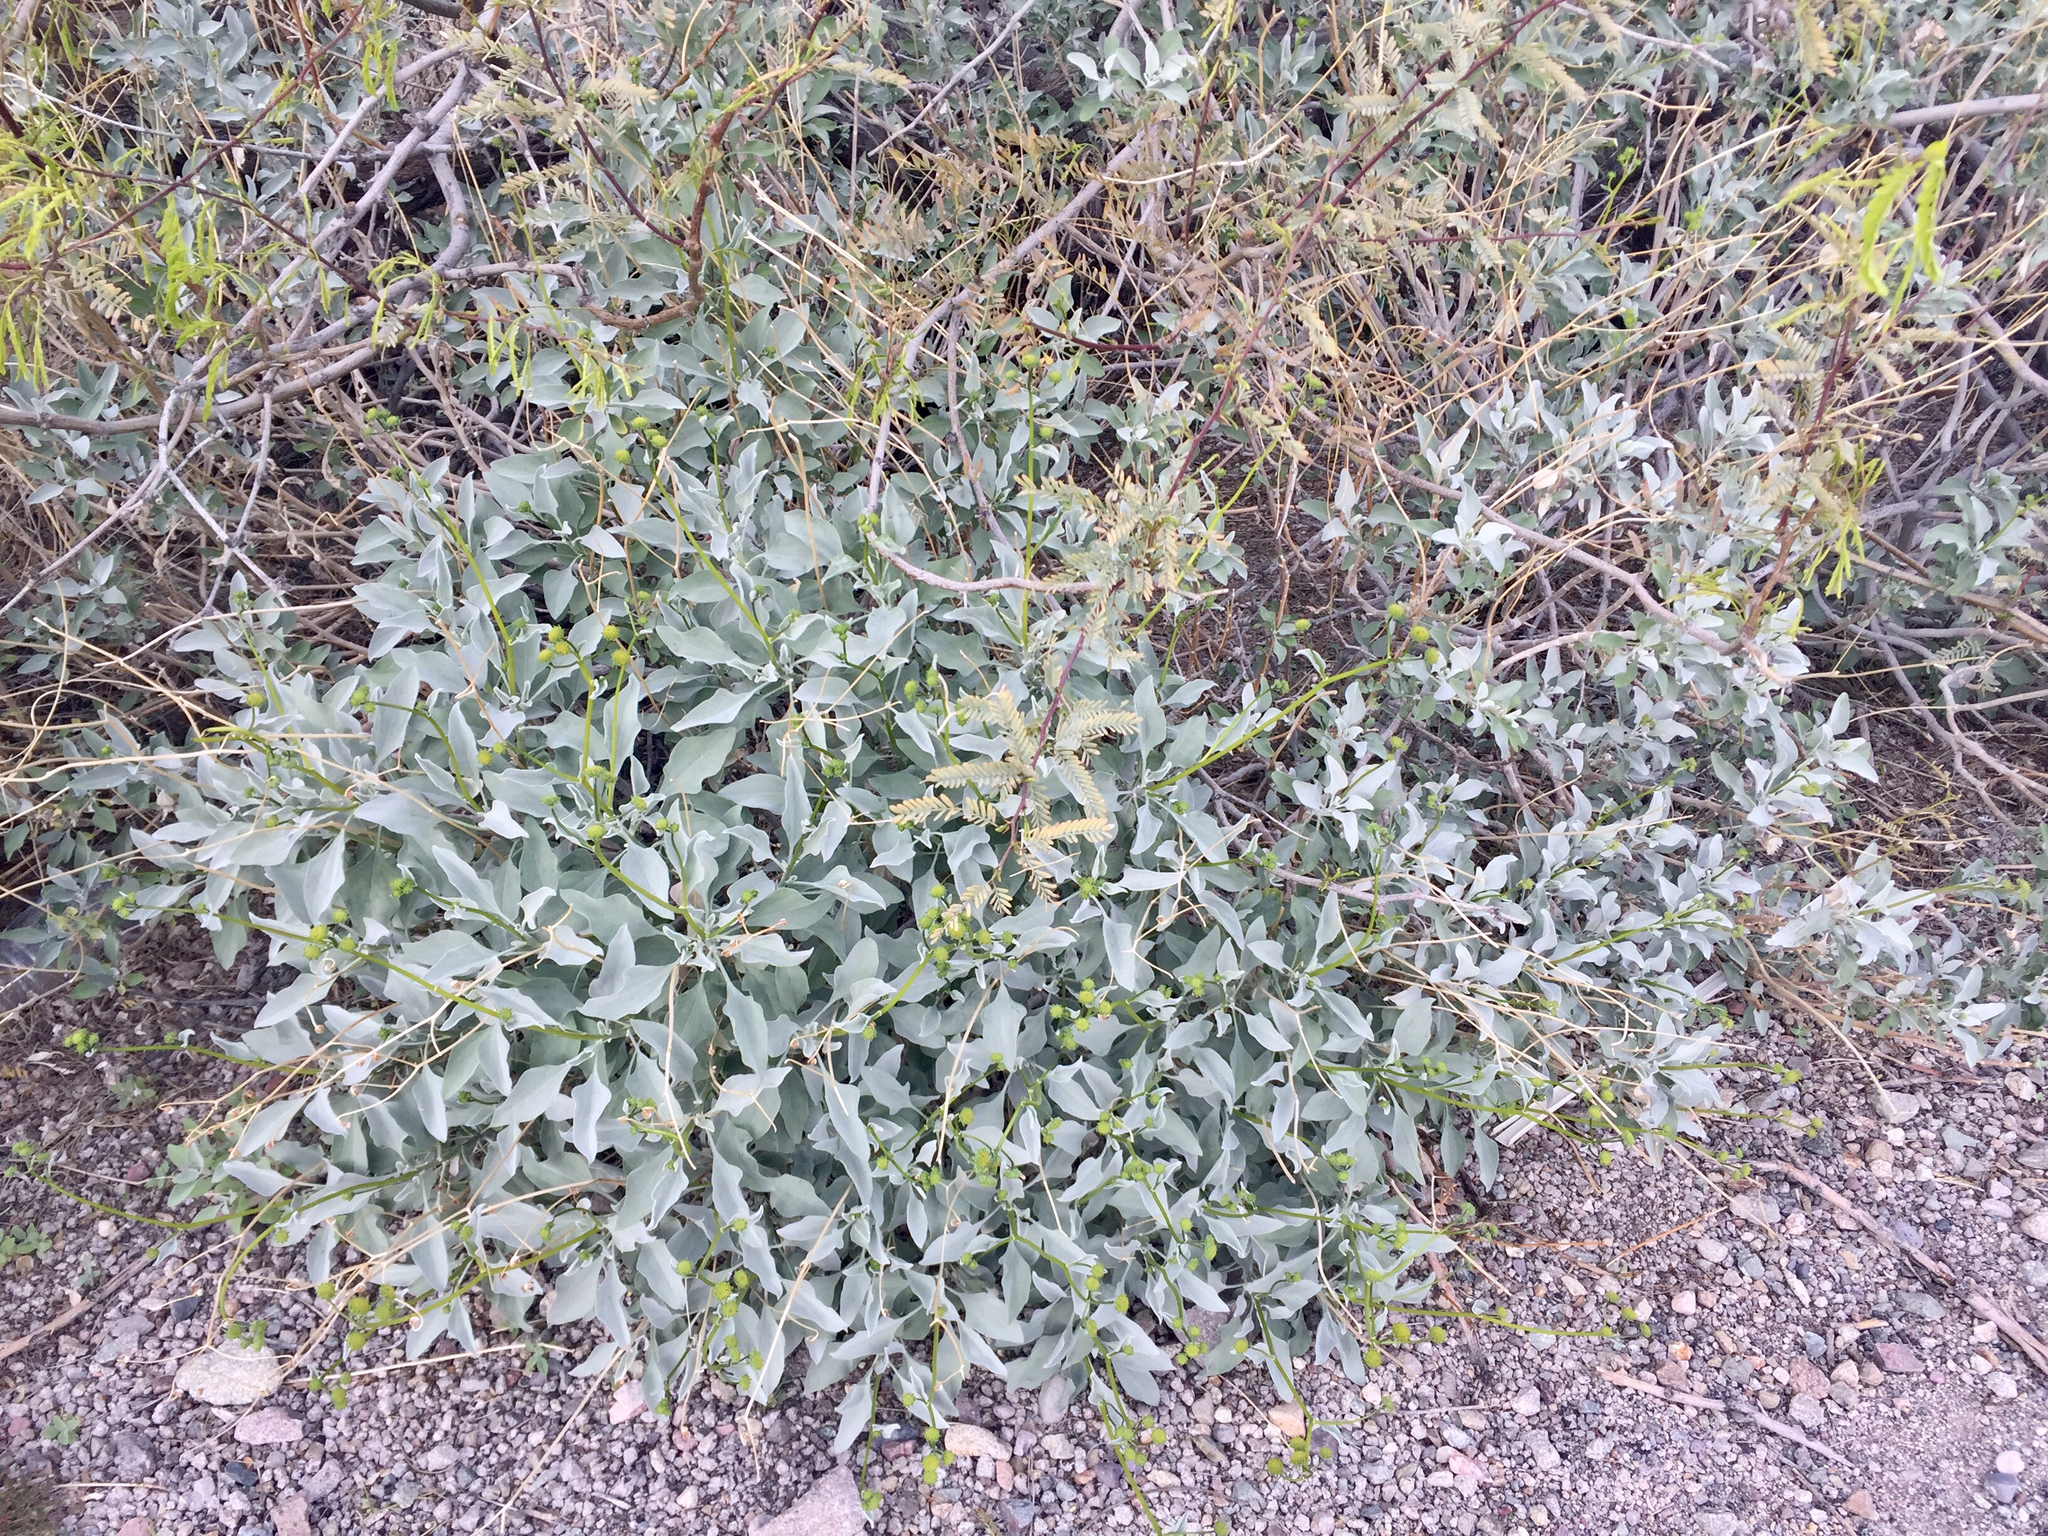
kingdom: Plantae
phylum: Tracheophyta
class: Magnoliopsida
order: Asterales
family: Asteraceae
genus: Encelia
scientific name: Encelia farinosa
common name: Brittlebush
